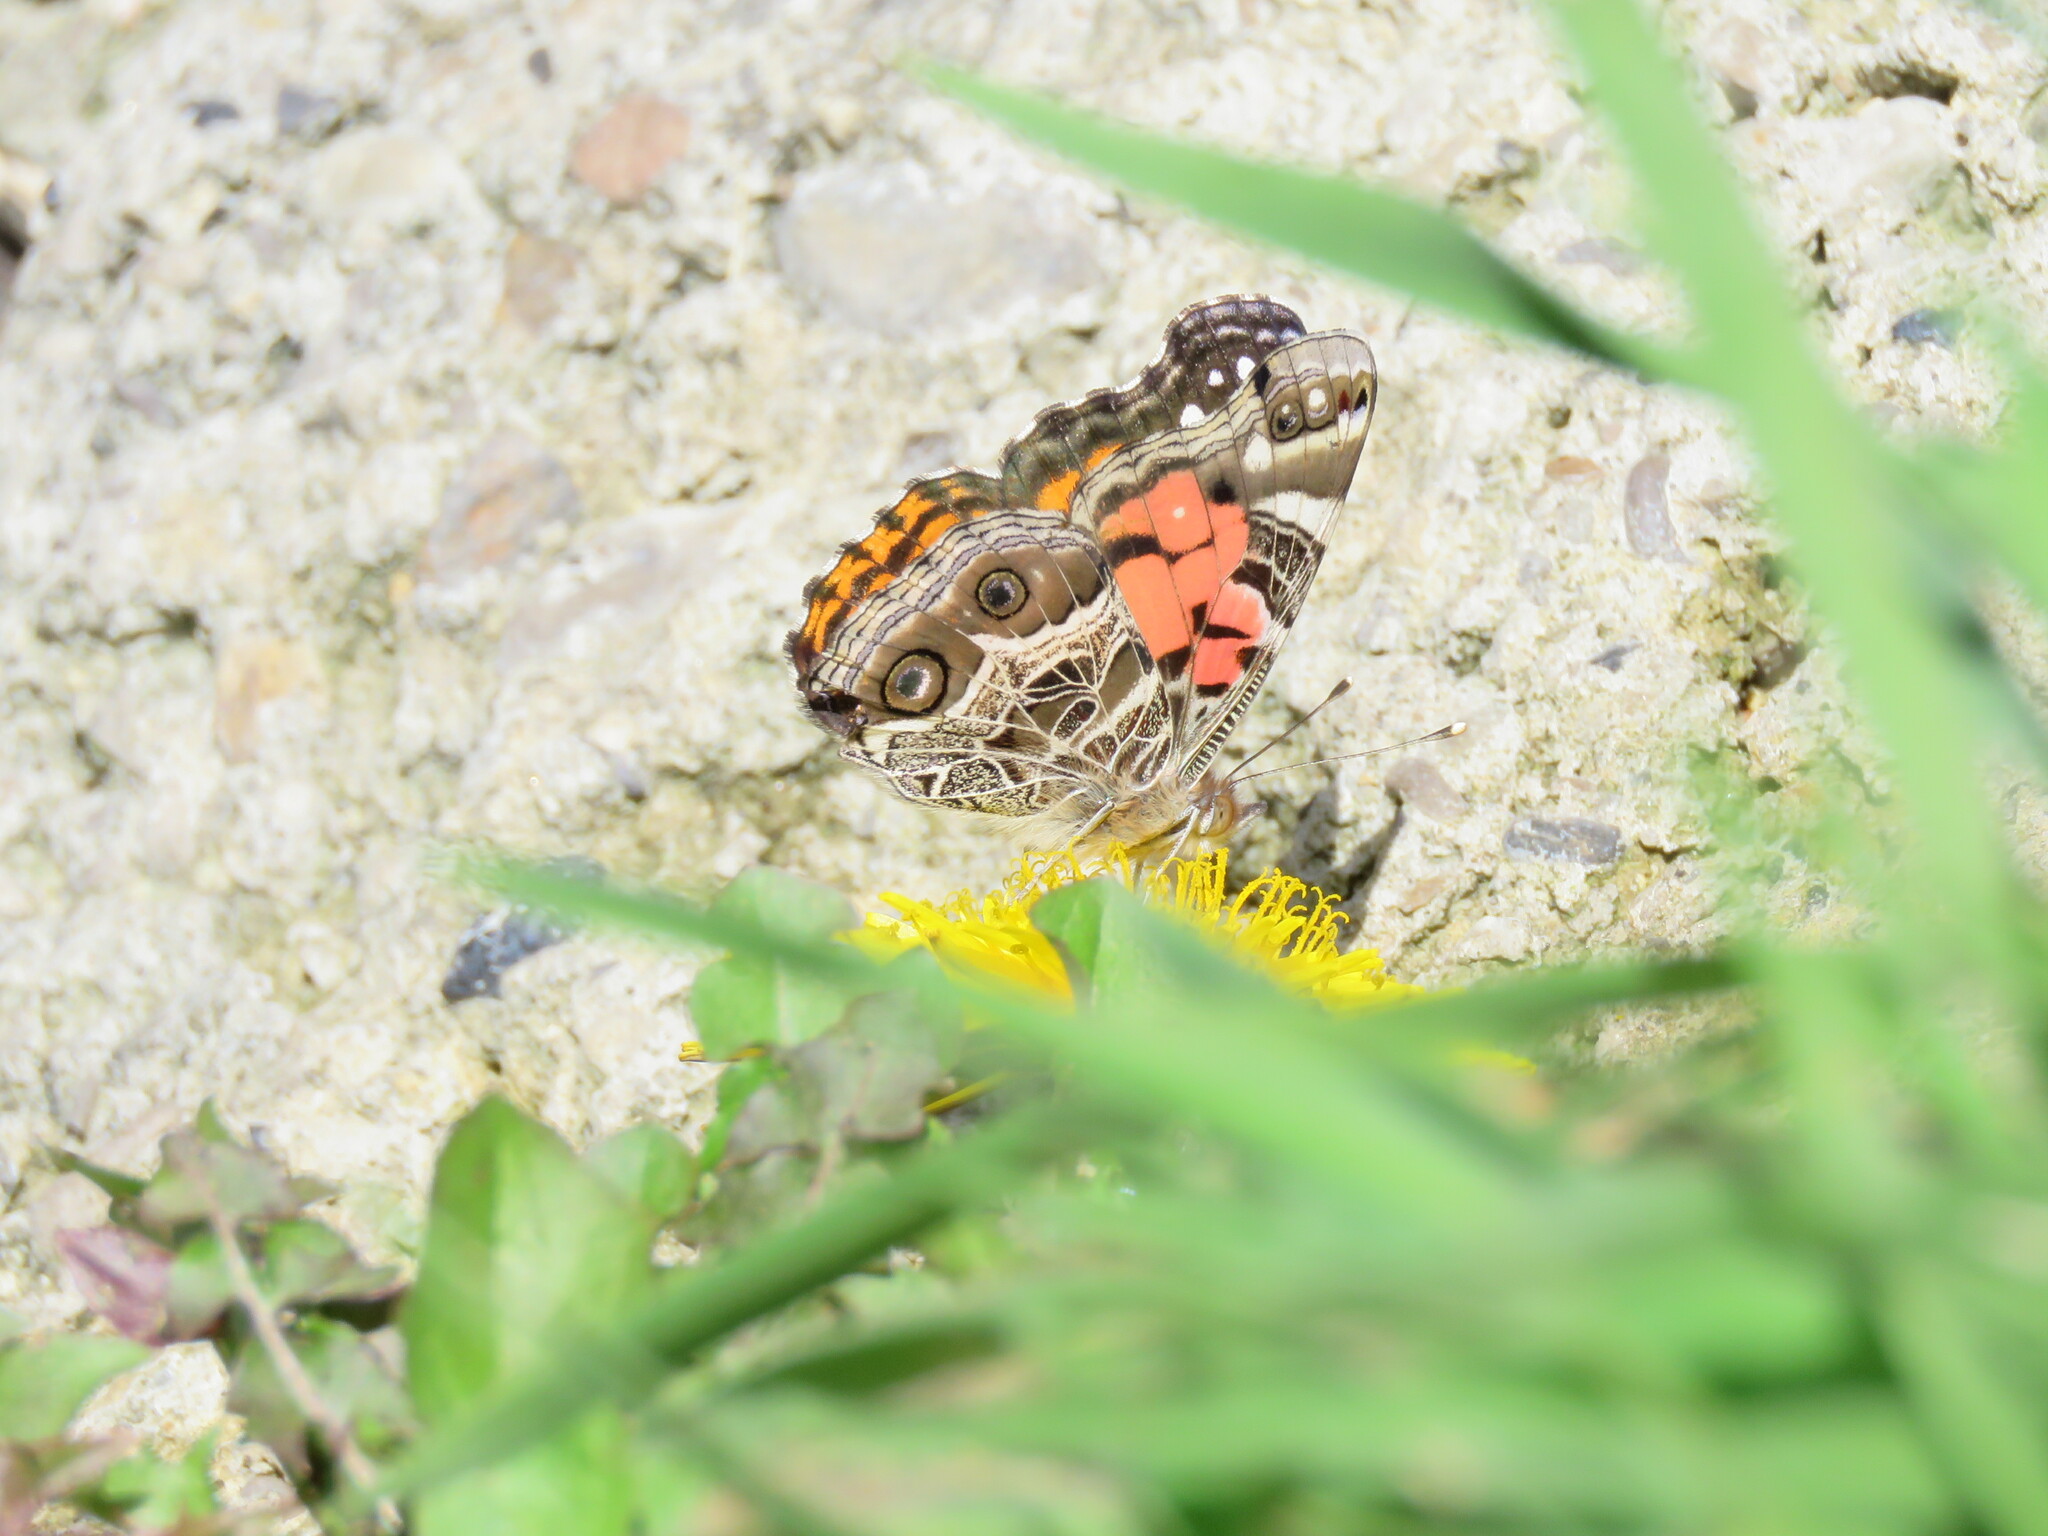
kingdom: Animalia
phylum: Arthropoda
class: Insecta
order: Lepidoptera
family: Nymphalidae
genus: Vanessa
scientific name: Vanessa virginiensis
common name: American lady
